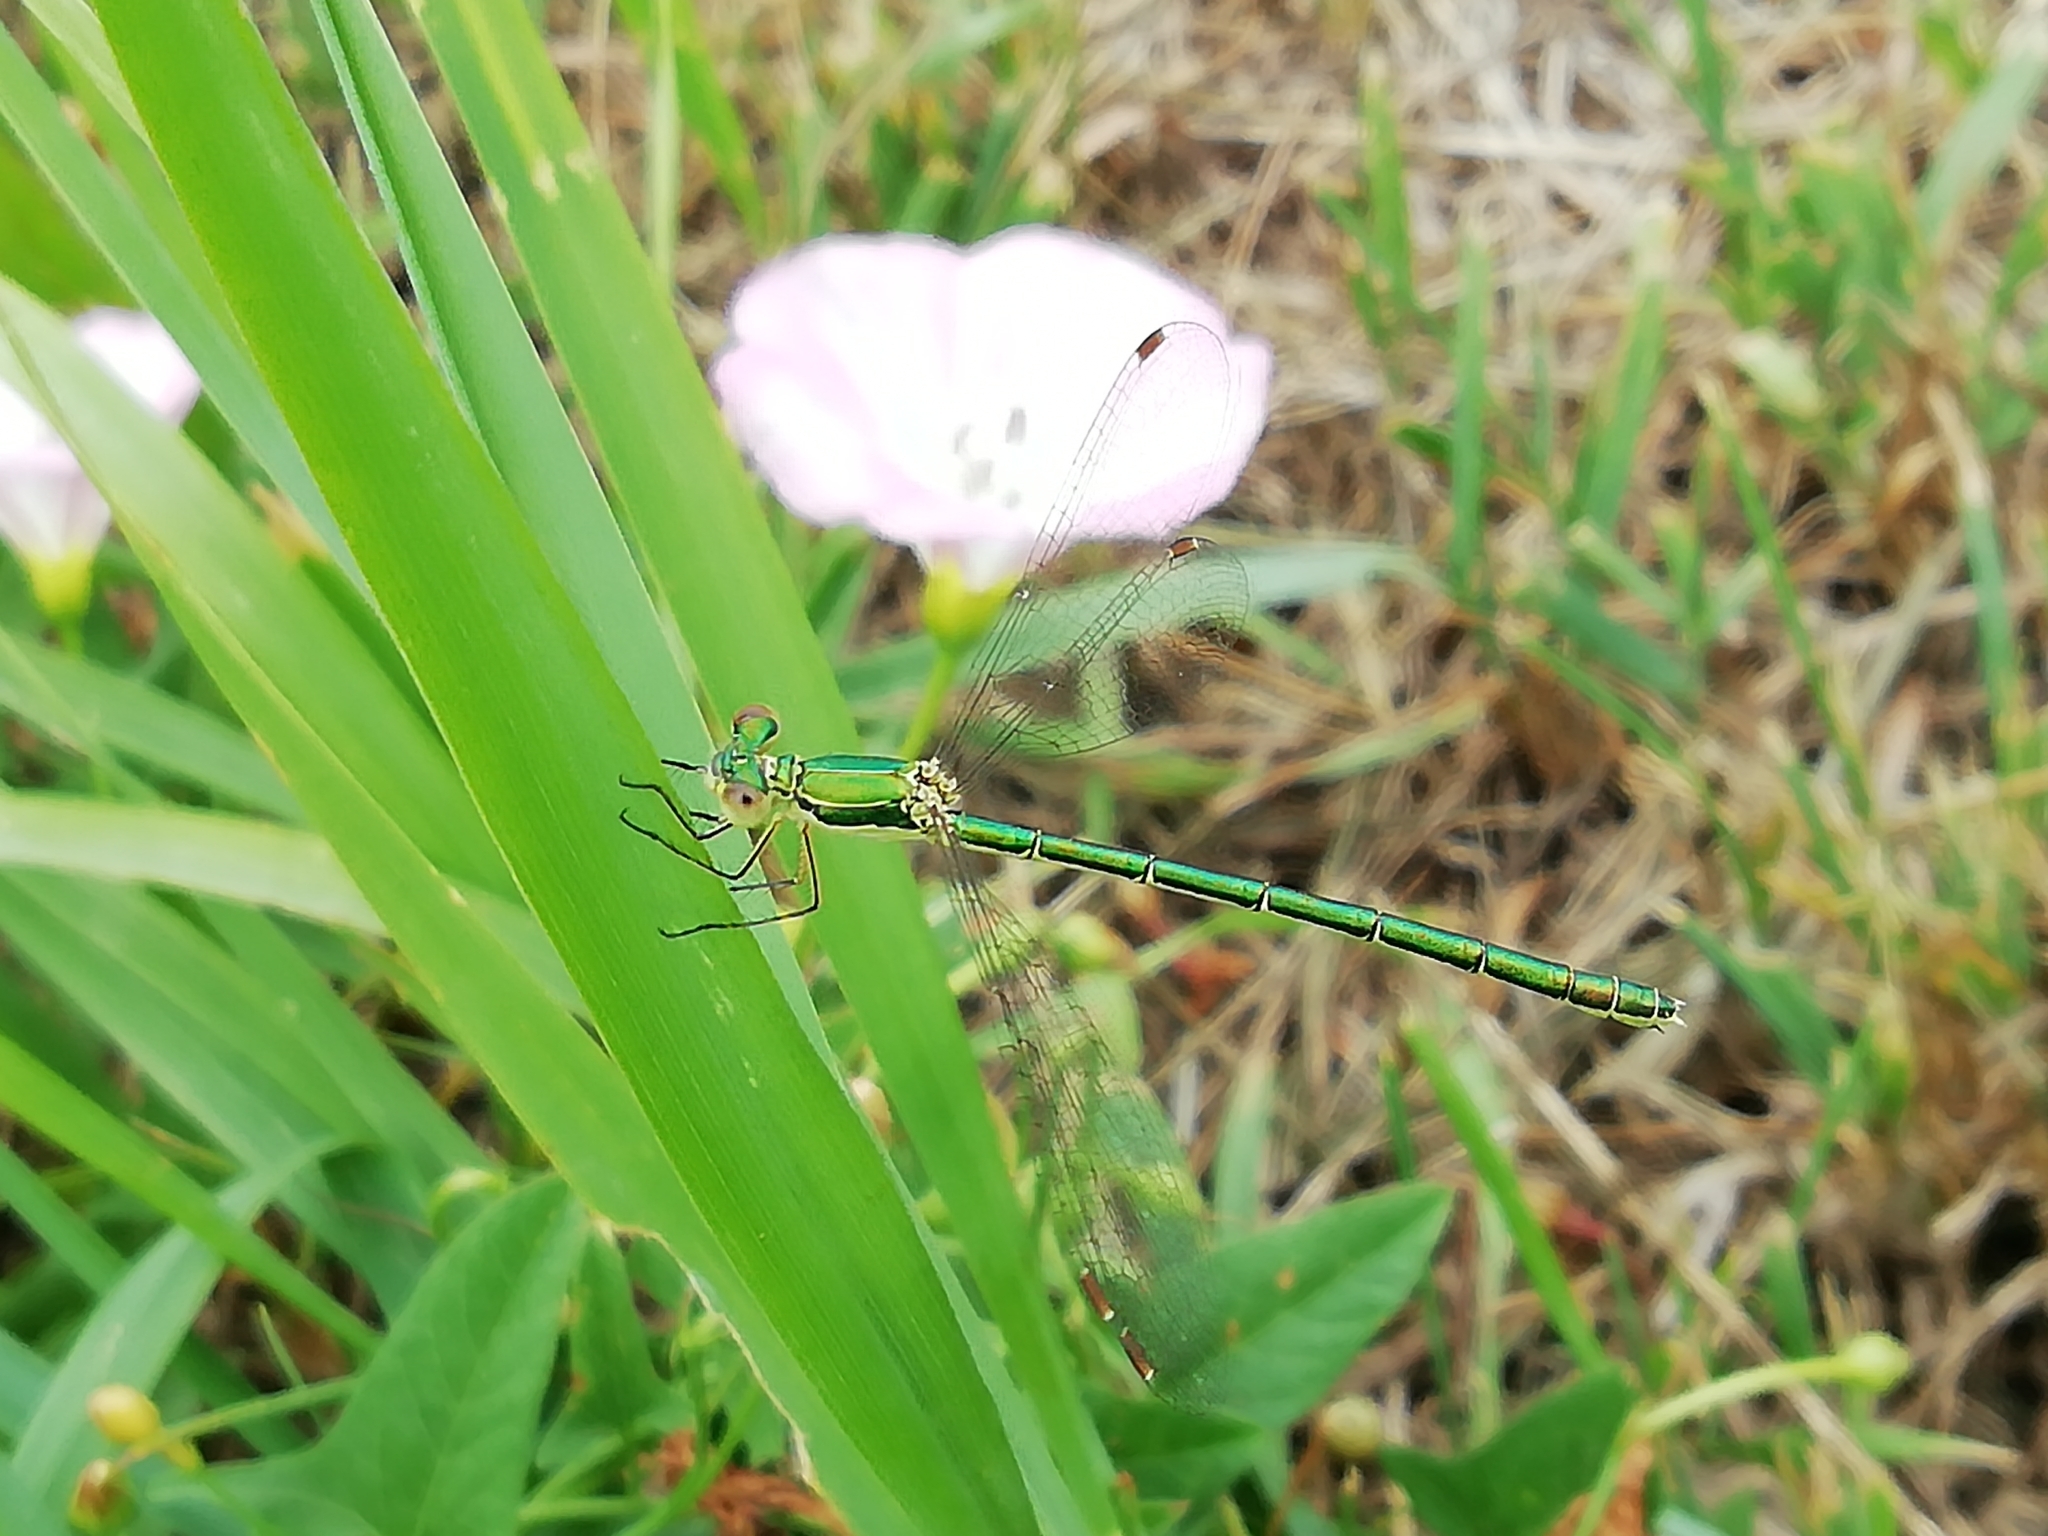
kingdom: Animalia
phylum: Arthropoda
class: Insecta
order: Odonata
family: Lestidae
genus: Lestes
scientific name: Lestes virens
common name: Small emerald spreadwing
